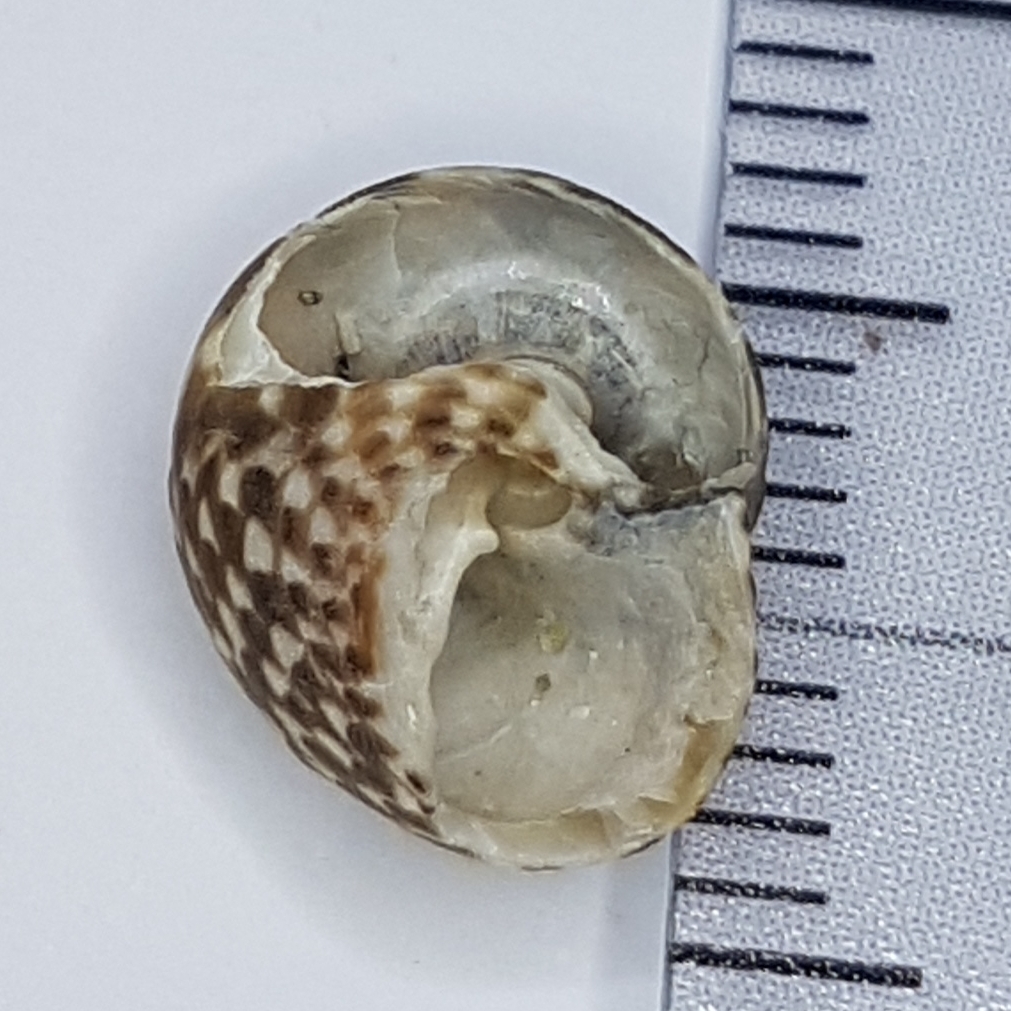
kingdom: Animalia
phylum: Mollusca
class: Gastropoda
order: Trochida
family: Trochidae
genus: Clanculus
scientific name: Clanculus jussieui
